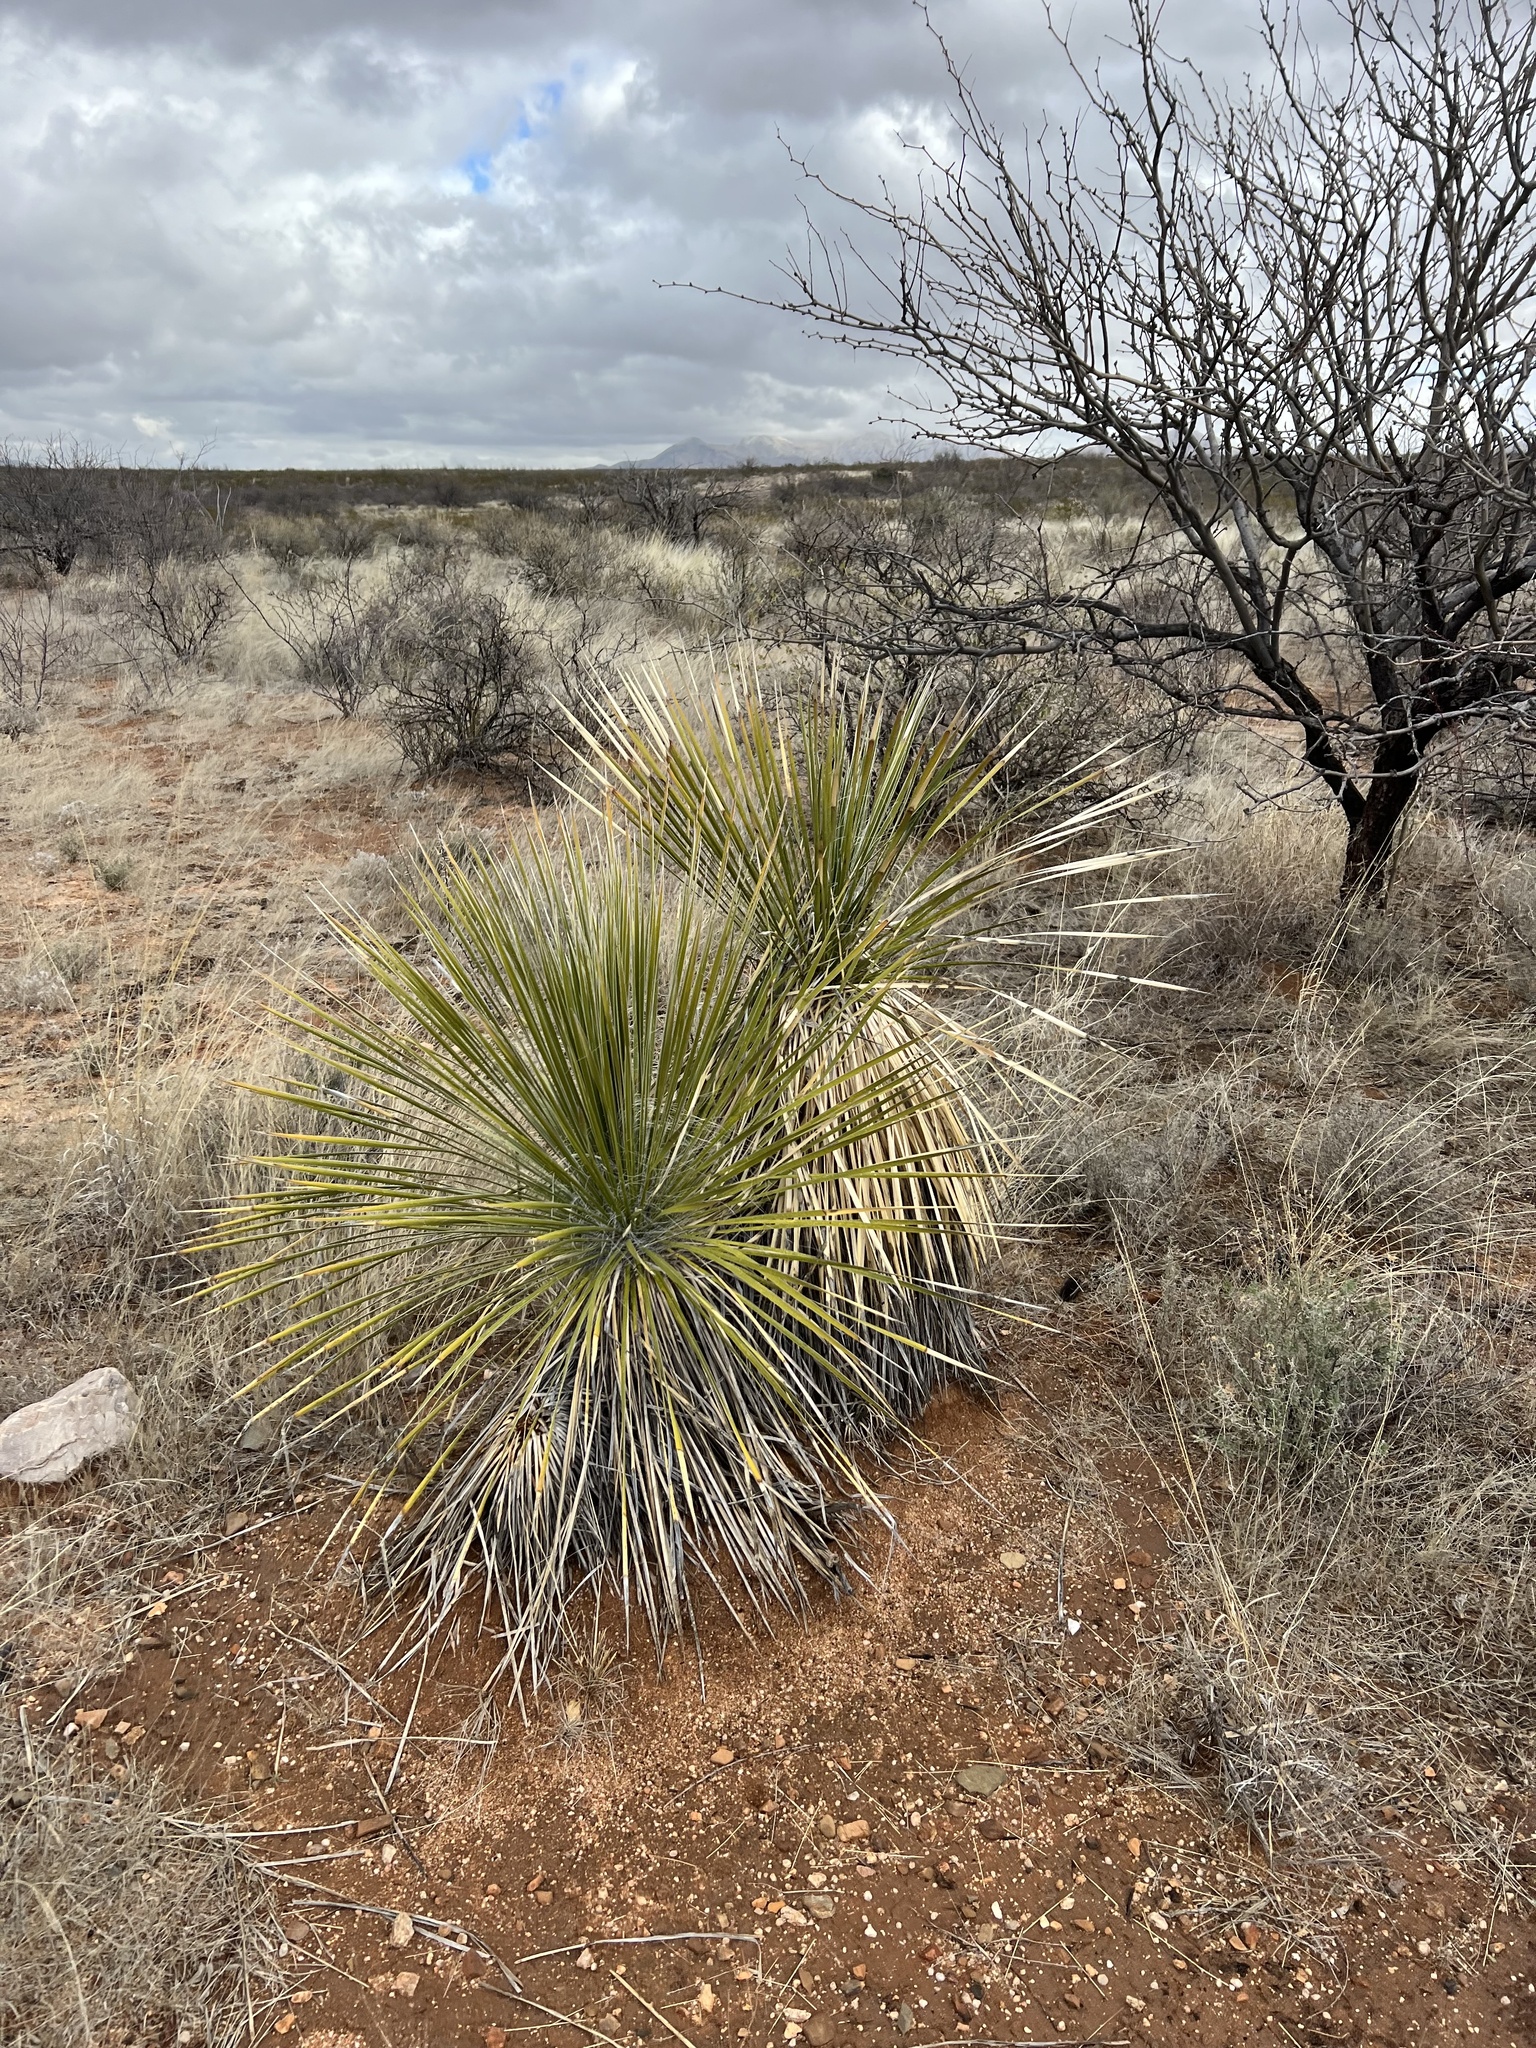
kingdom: Plantae
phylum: Tracheophyta
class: Liliopsida
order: Asparagales
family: Asparagaceae
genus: Yucca
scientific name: Yucca elata
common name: Palmella
